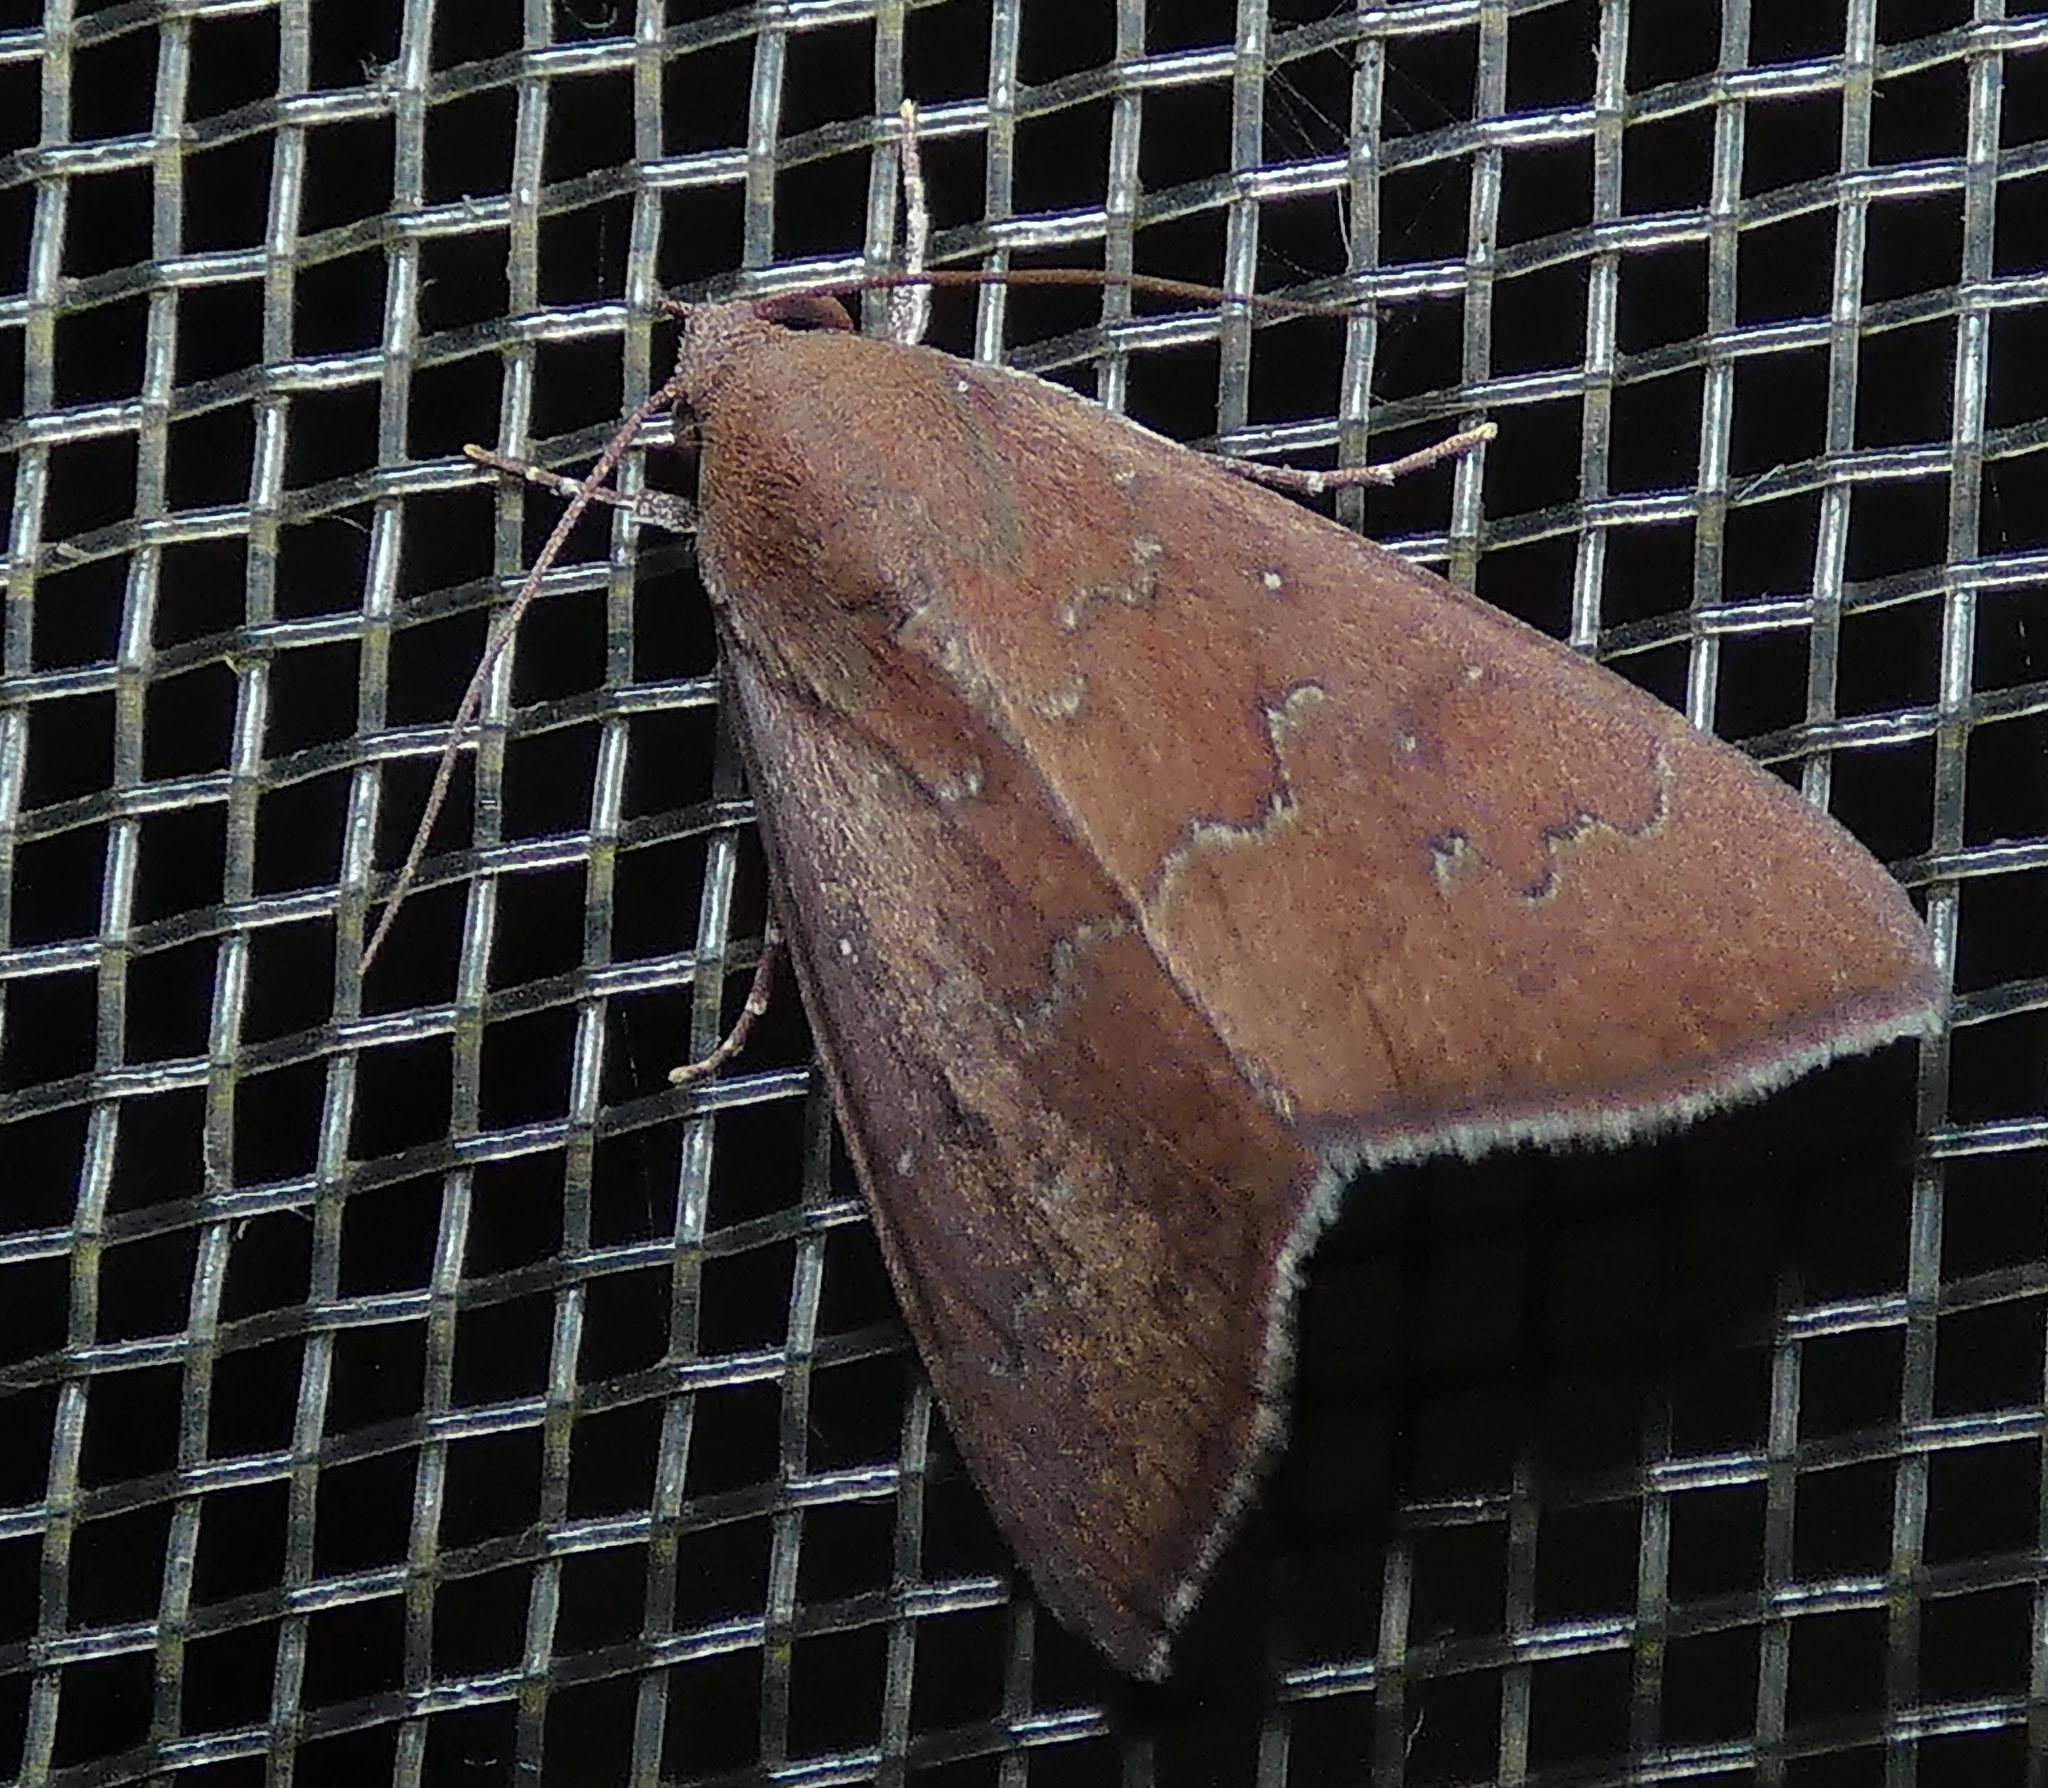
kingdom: Animalia
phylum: Arthropoda
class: Insecta
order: Lepidoptera
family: Erebidae
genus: Anomis
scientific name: Anomis illita
